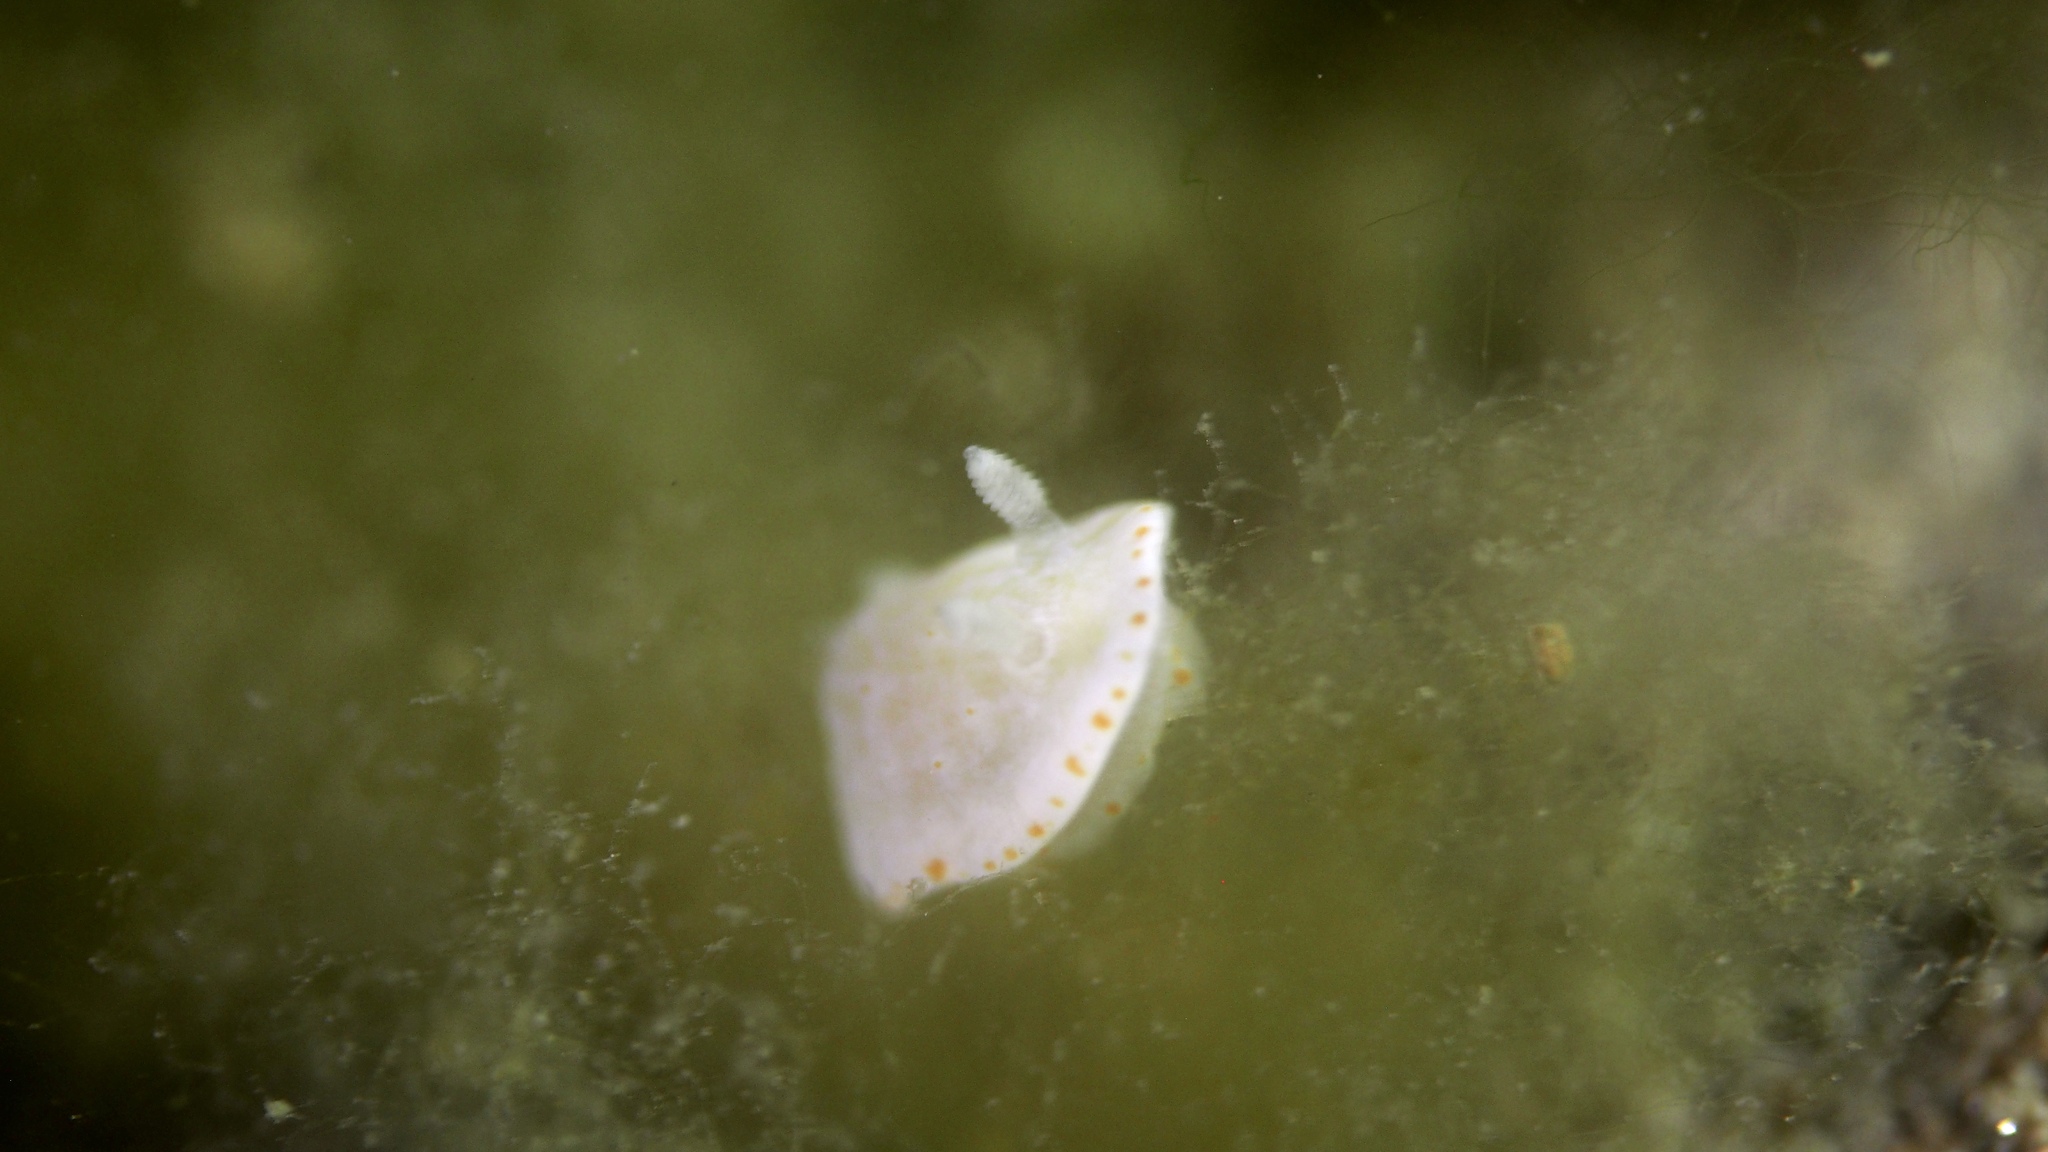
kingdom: Animalia
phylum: Mollusca
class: Gastropoda
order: Nudibranchia
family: Chromodorididae
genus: Goniobranchus
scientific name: Goniobranchus epicurius
